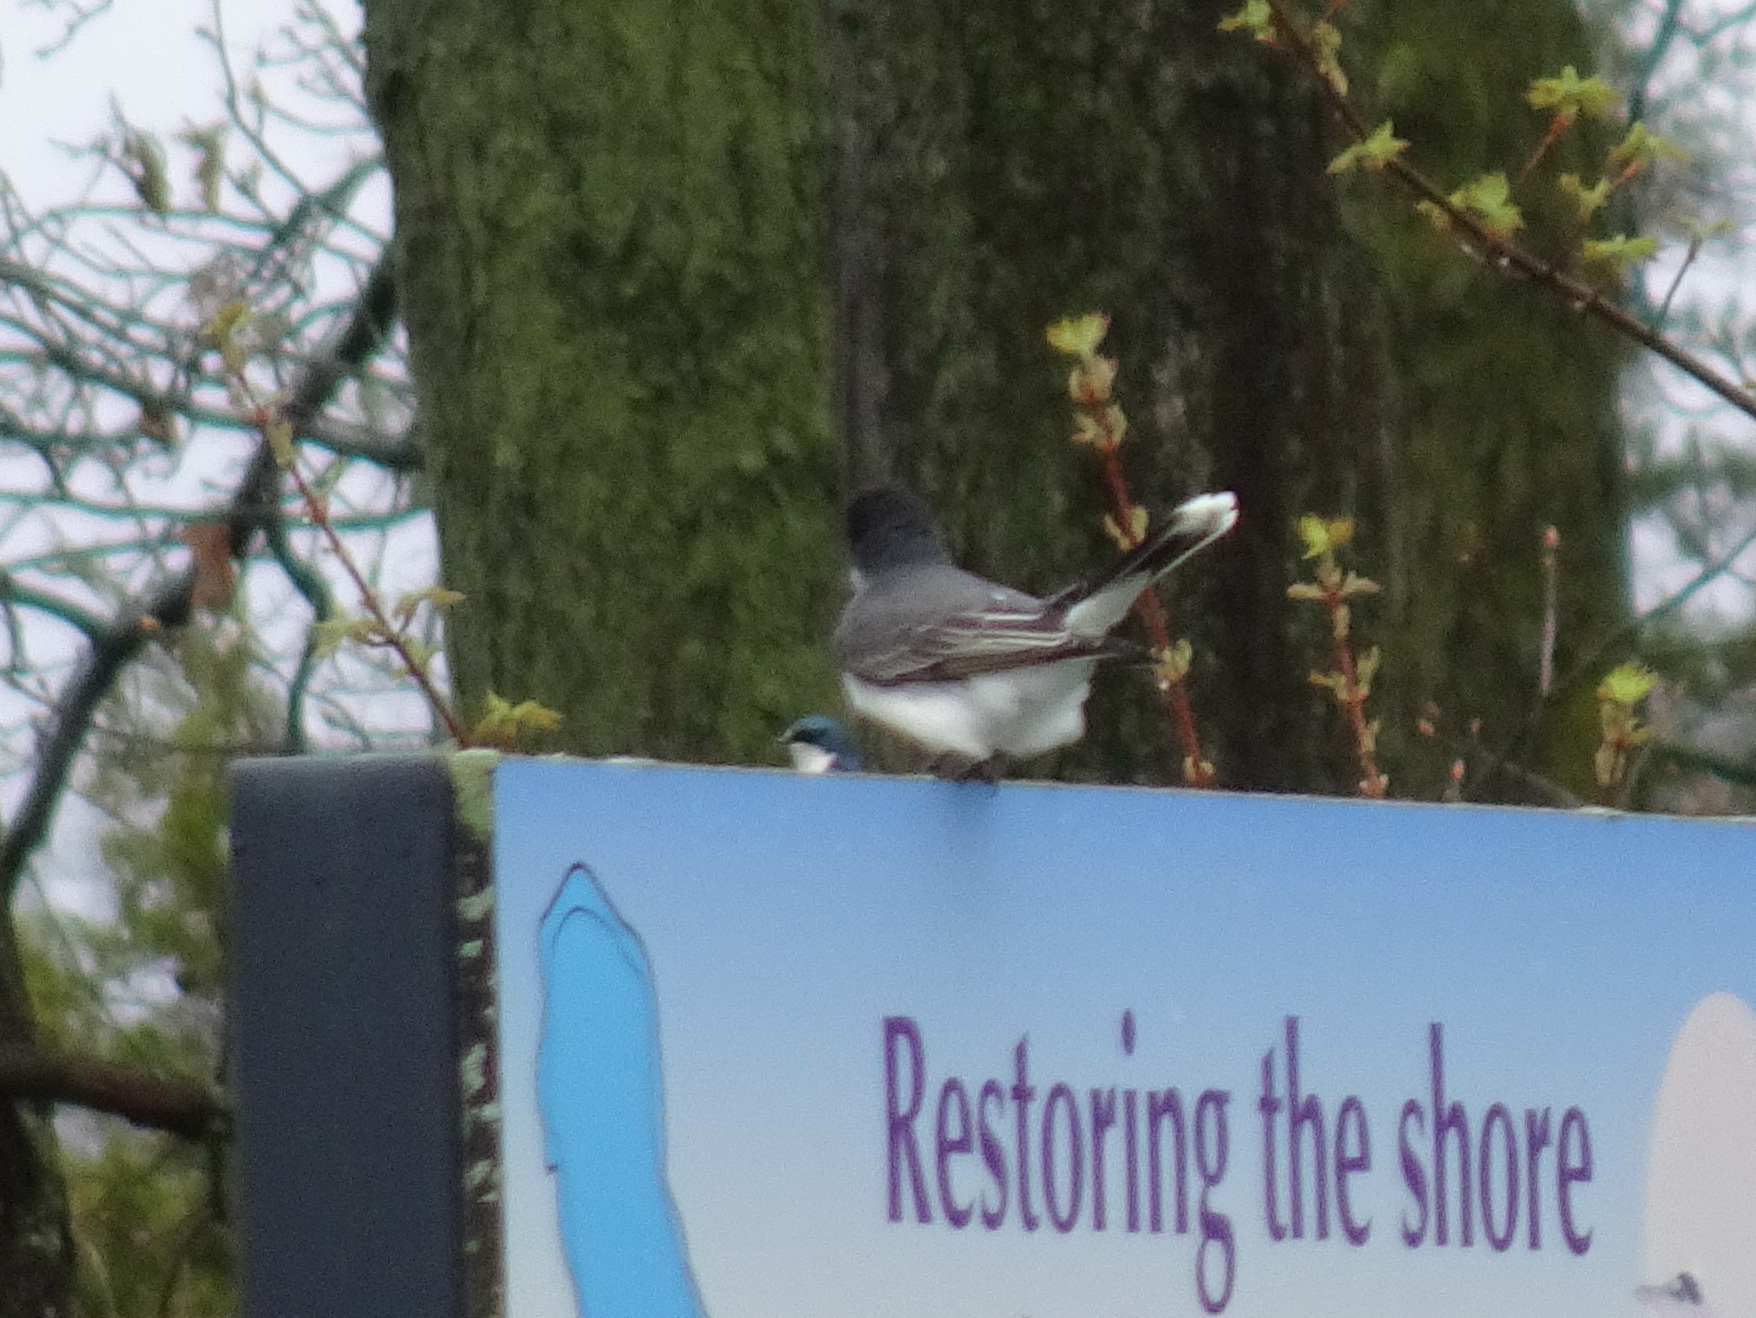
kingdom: Animalia
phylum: Chordata
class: Aves
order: Passeriformes
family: Tyrannidae
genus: Tyrannus
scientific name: Tyrannus tyrannus
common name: Eastern kingbird
